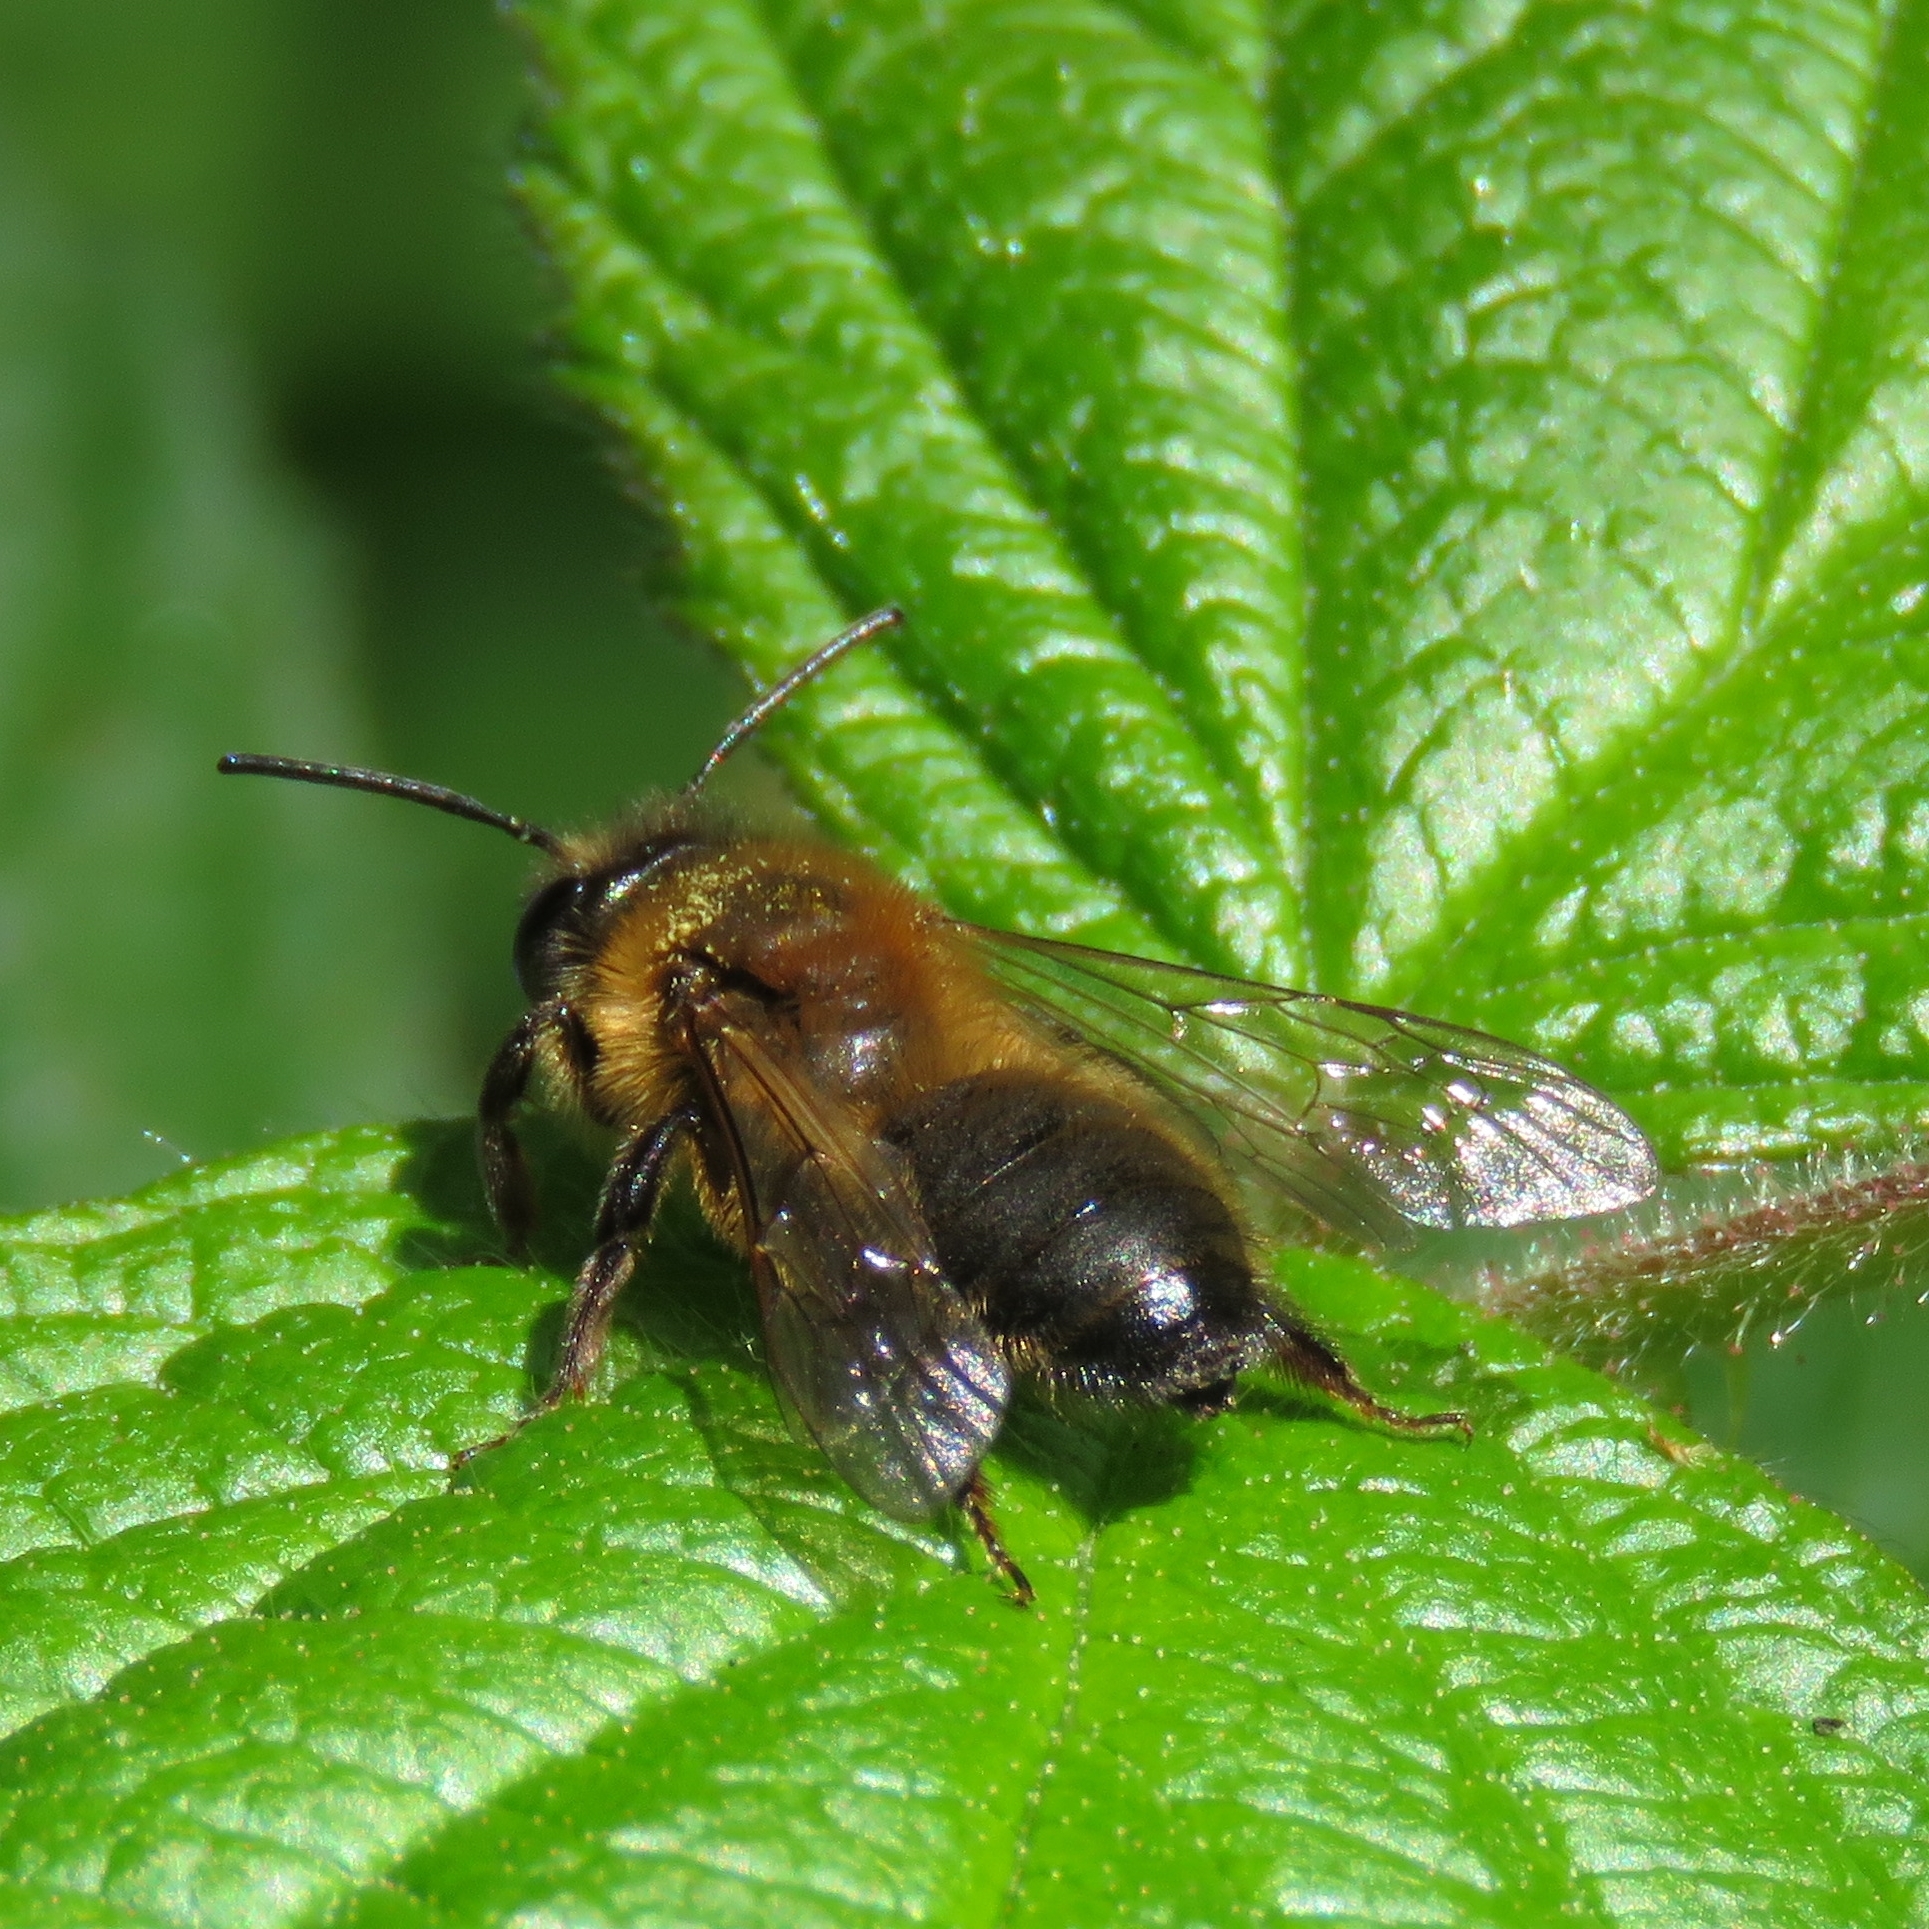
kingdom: Animalia
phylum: Arthropoda
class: Insecta
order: Hymenoptera
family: Andrenidae
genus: Andrena
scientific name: Andrena nigroaenea
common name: Buffish mining bee
